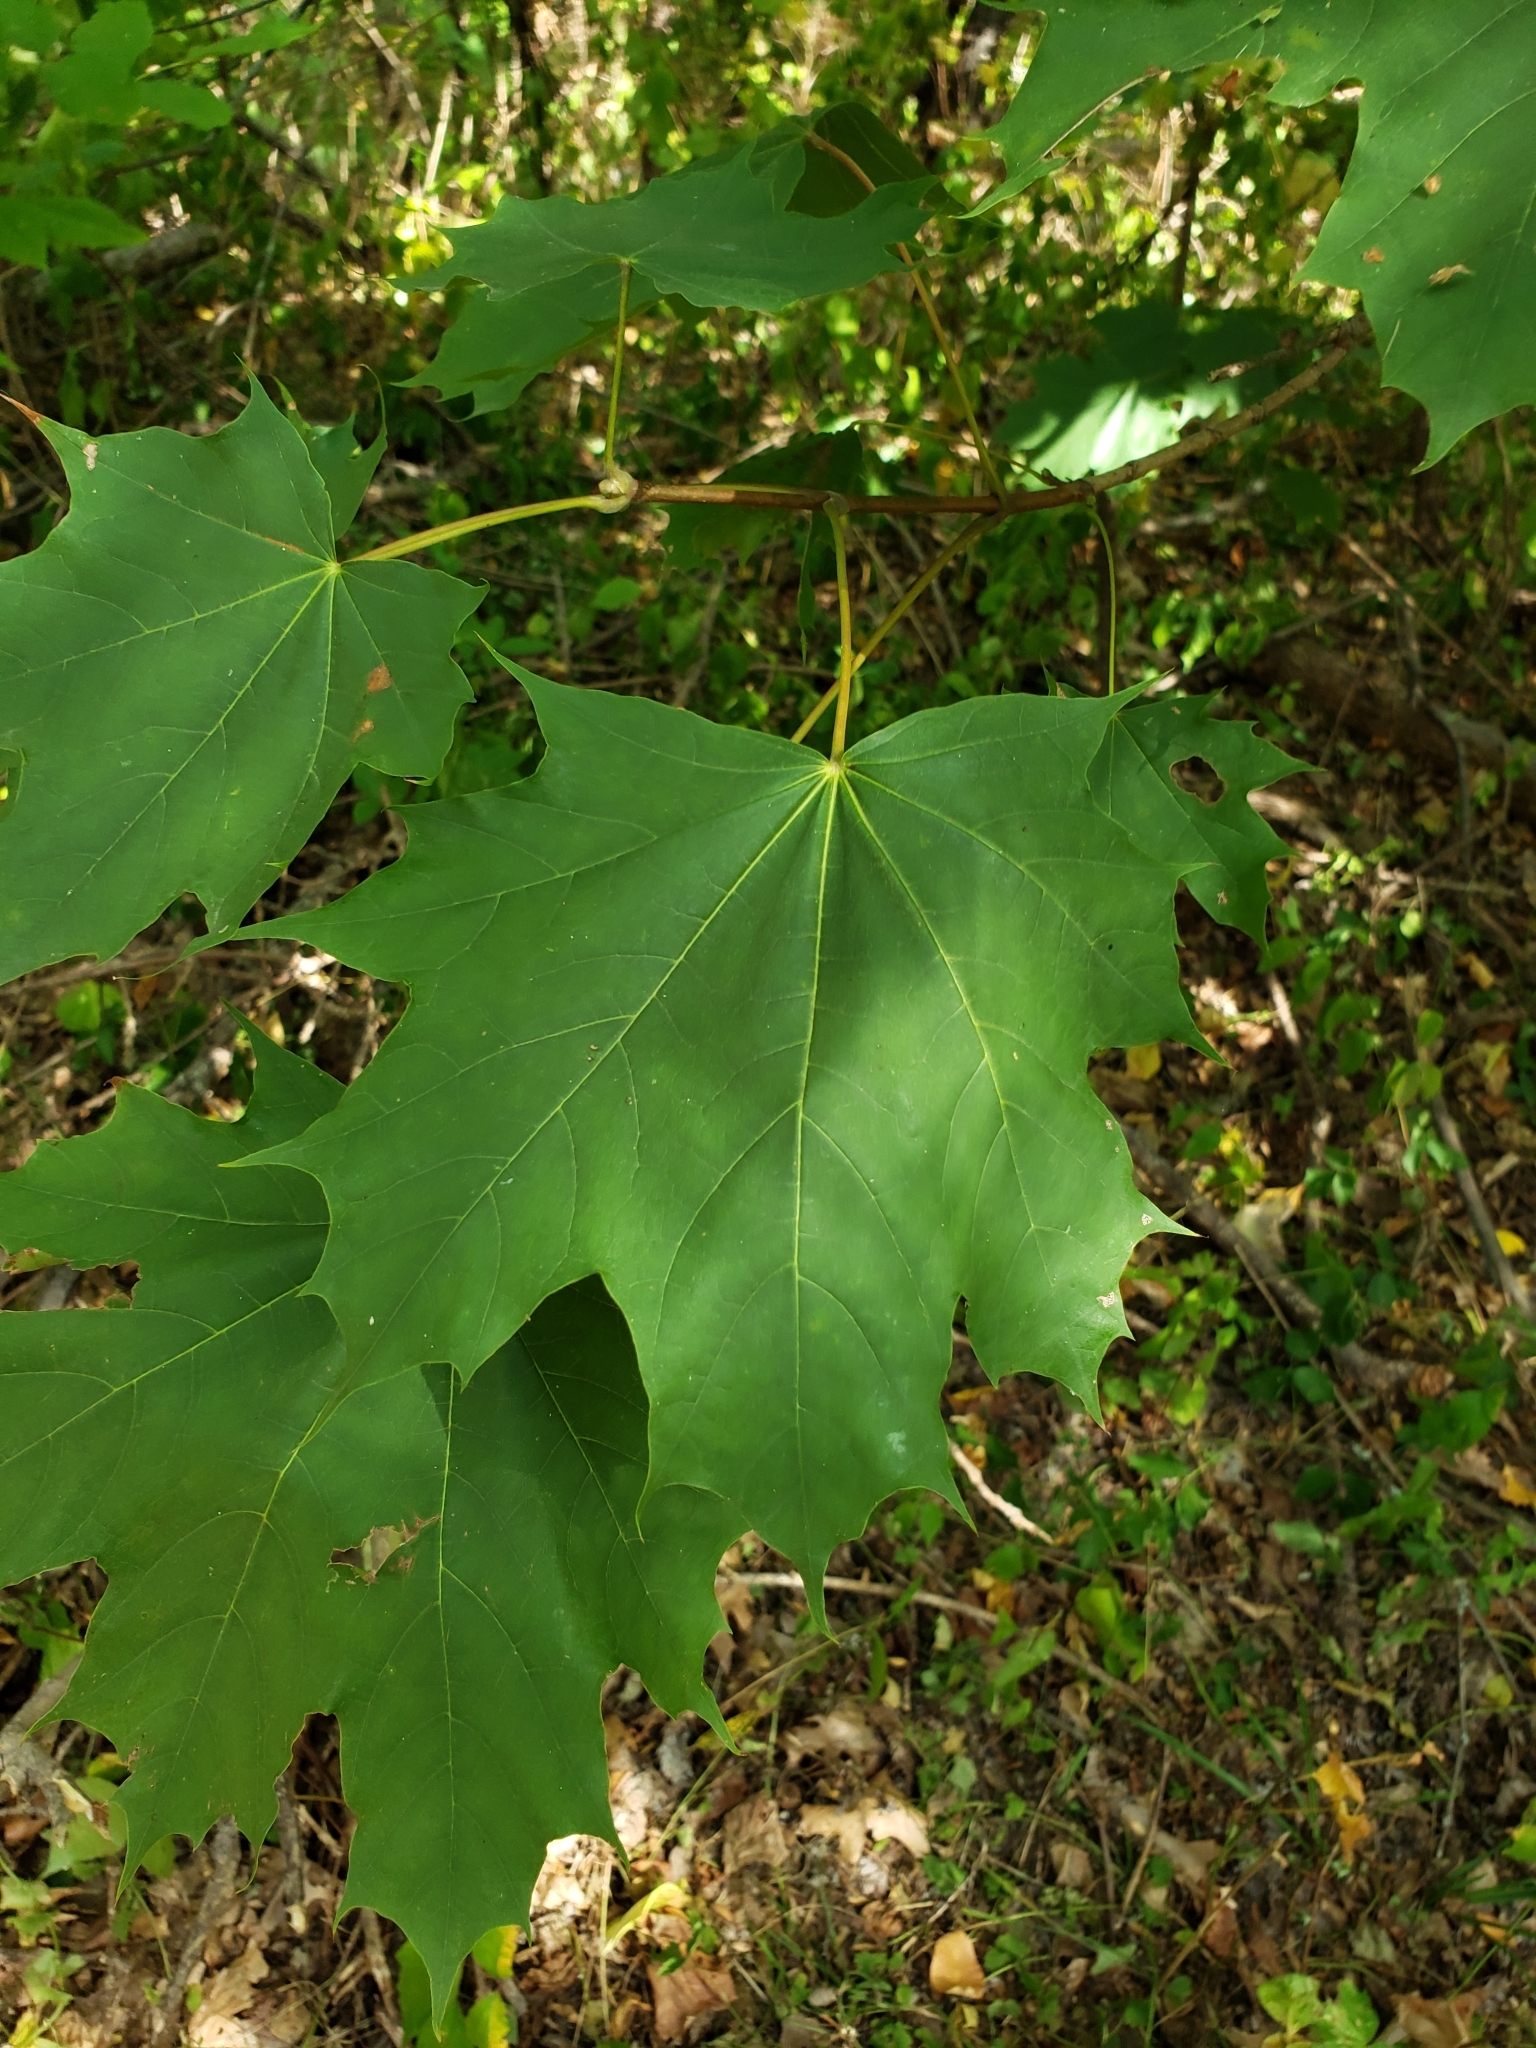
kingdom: Plantae
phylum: Tracheophyta
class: Magnoliopsida
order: Sapindales
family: Sapindaceae
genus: Acer
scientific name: Acer platanoides
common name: Norway maple
